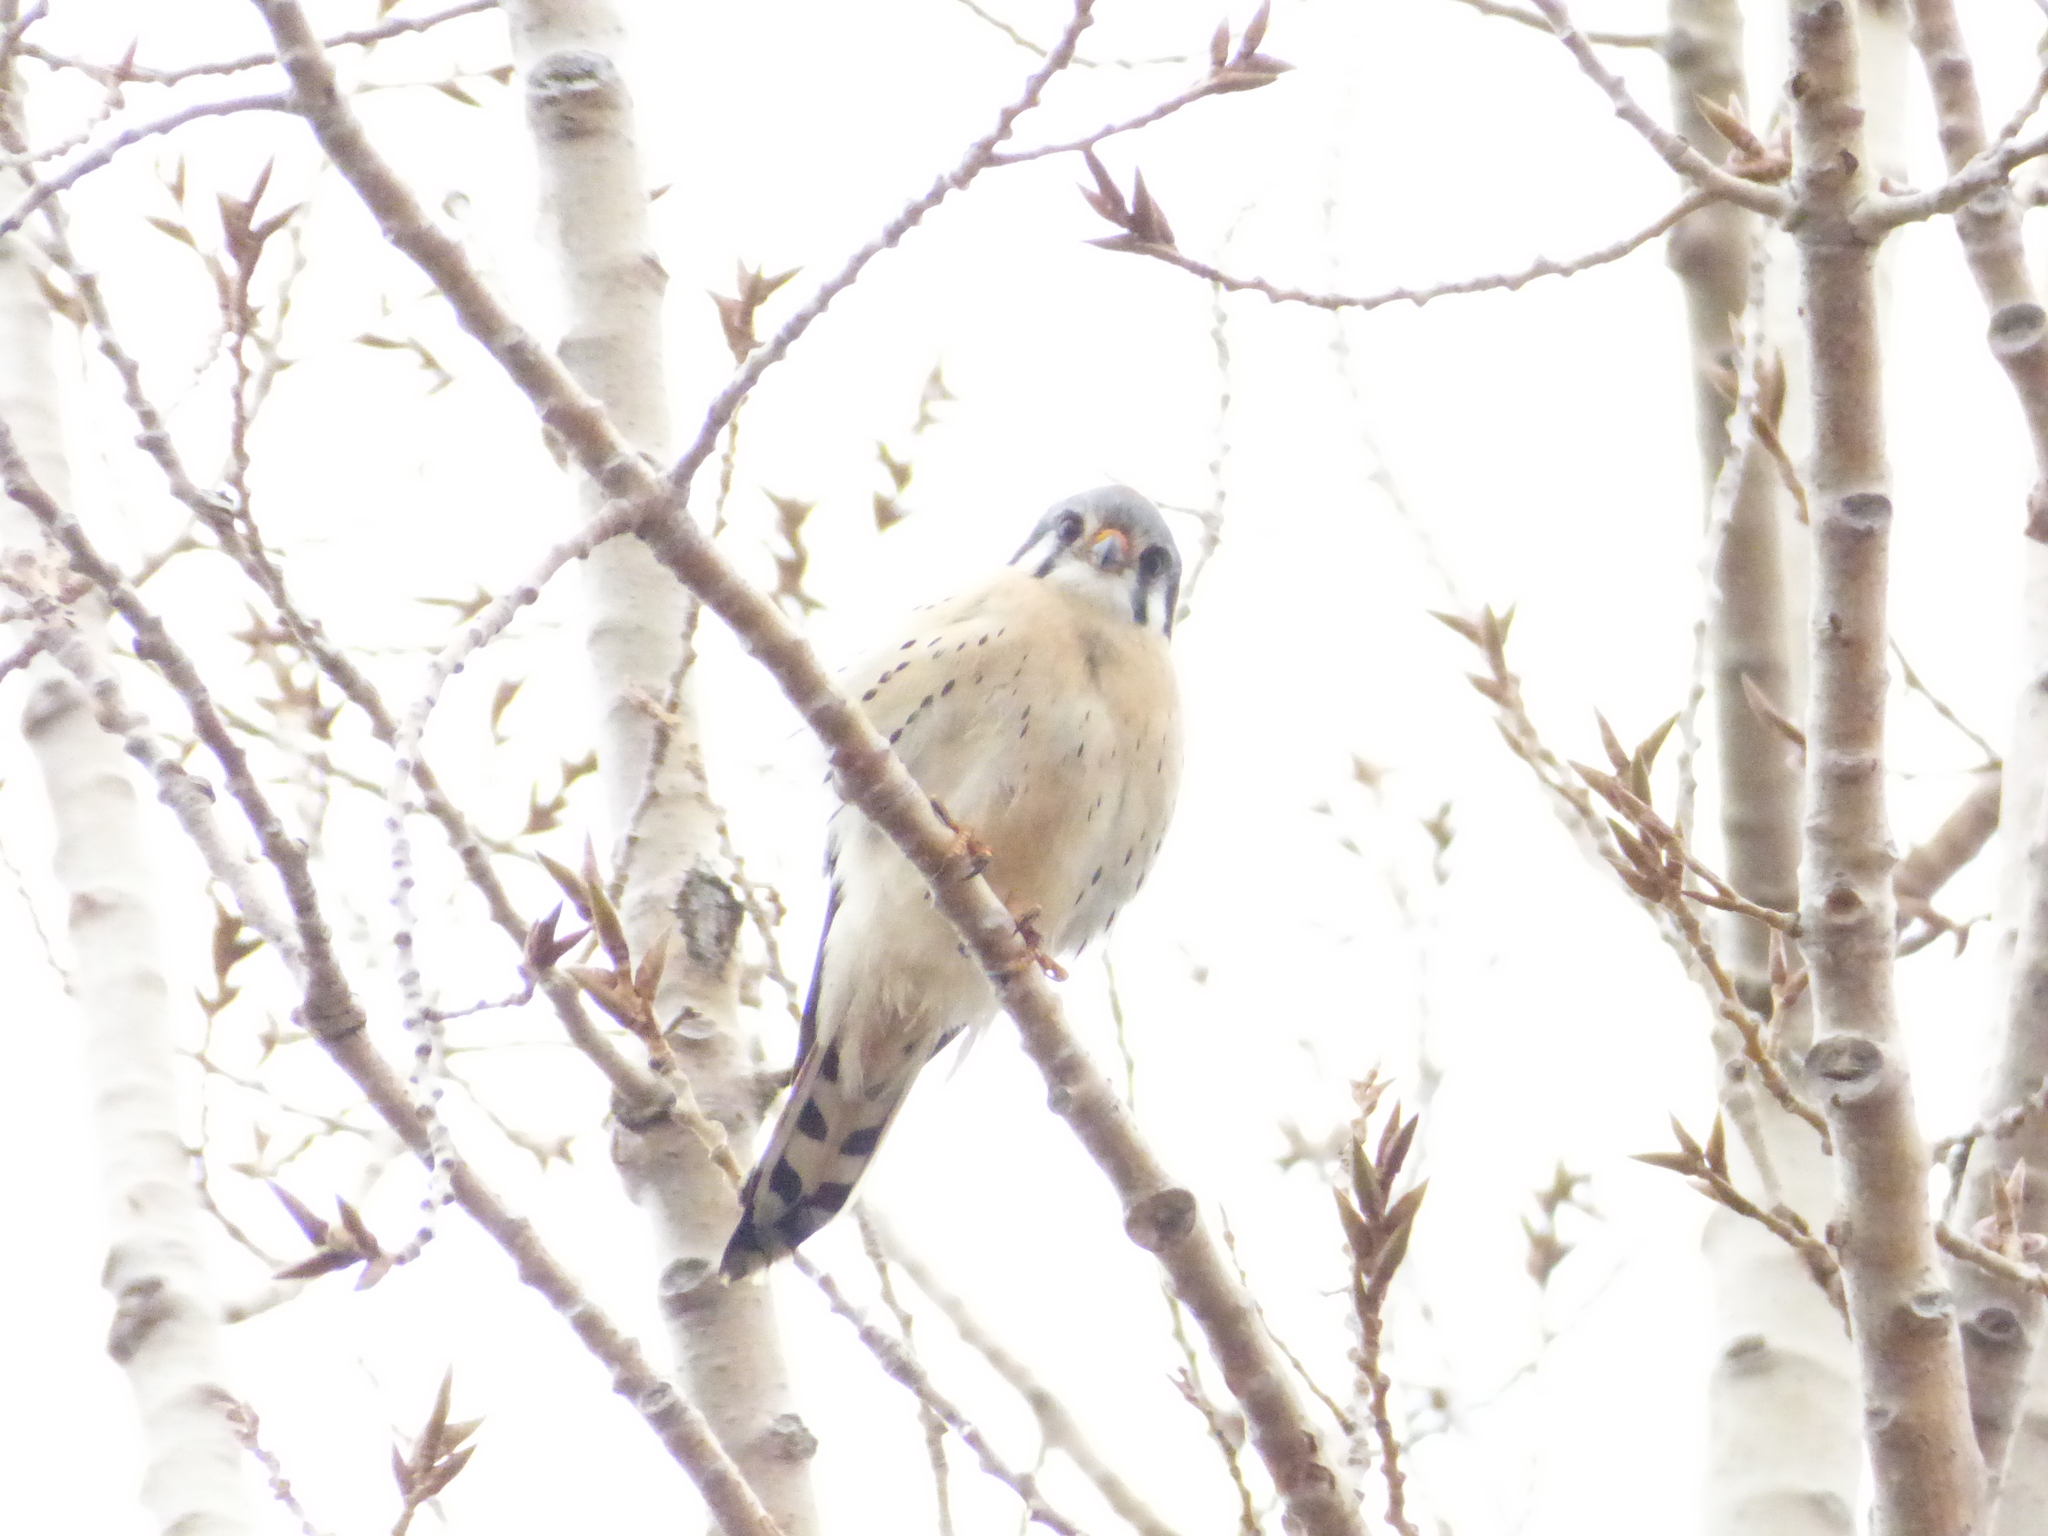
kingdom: Animalia
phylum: Chordata
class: Aves
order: Falconiformes
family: Falconidae
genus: Falco
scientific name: Falco sparverius
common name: American kestrel
